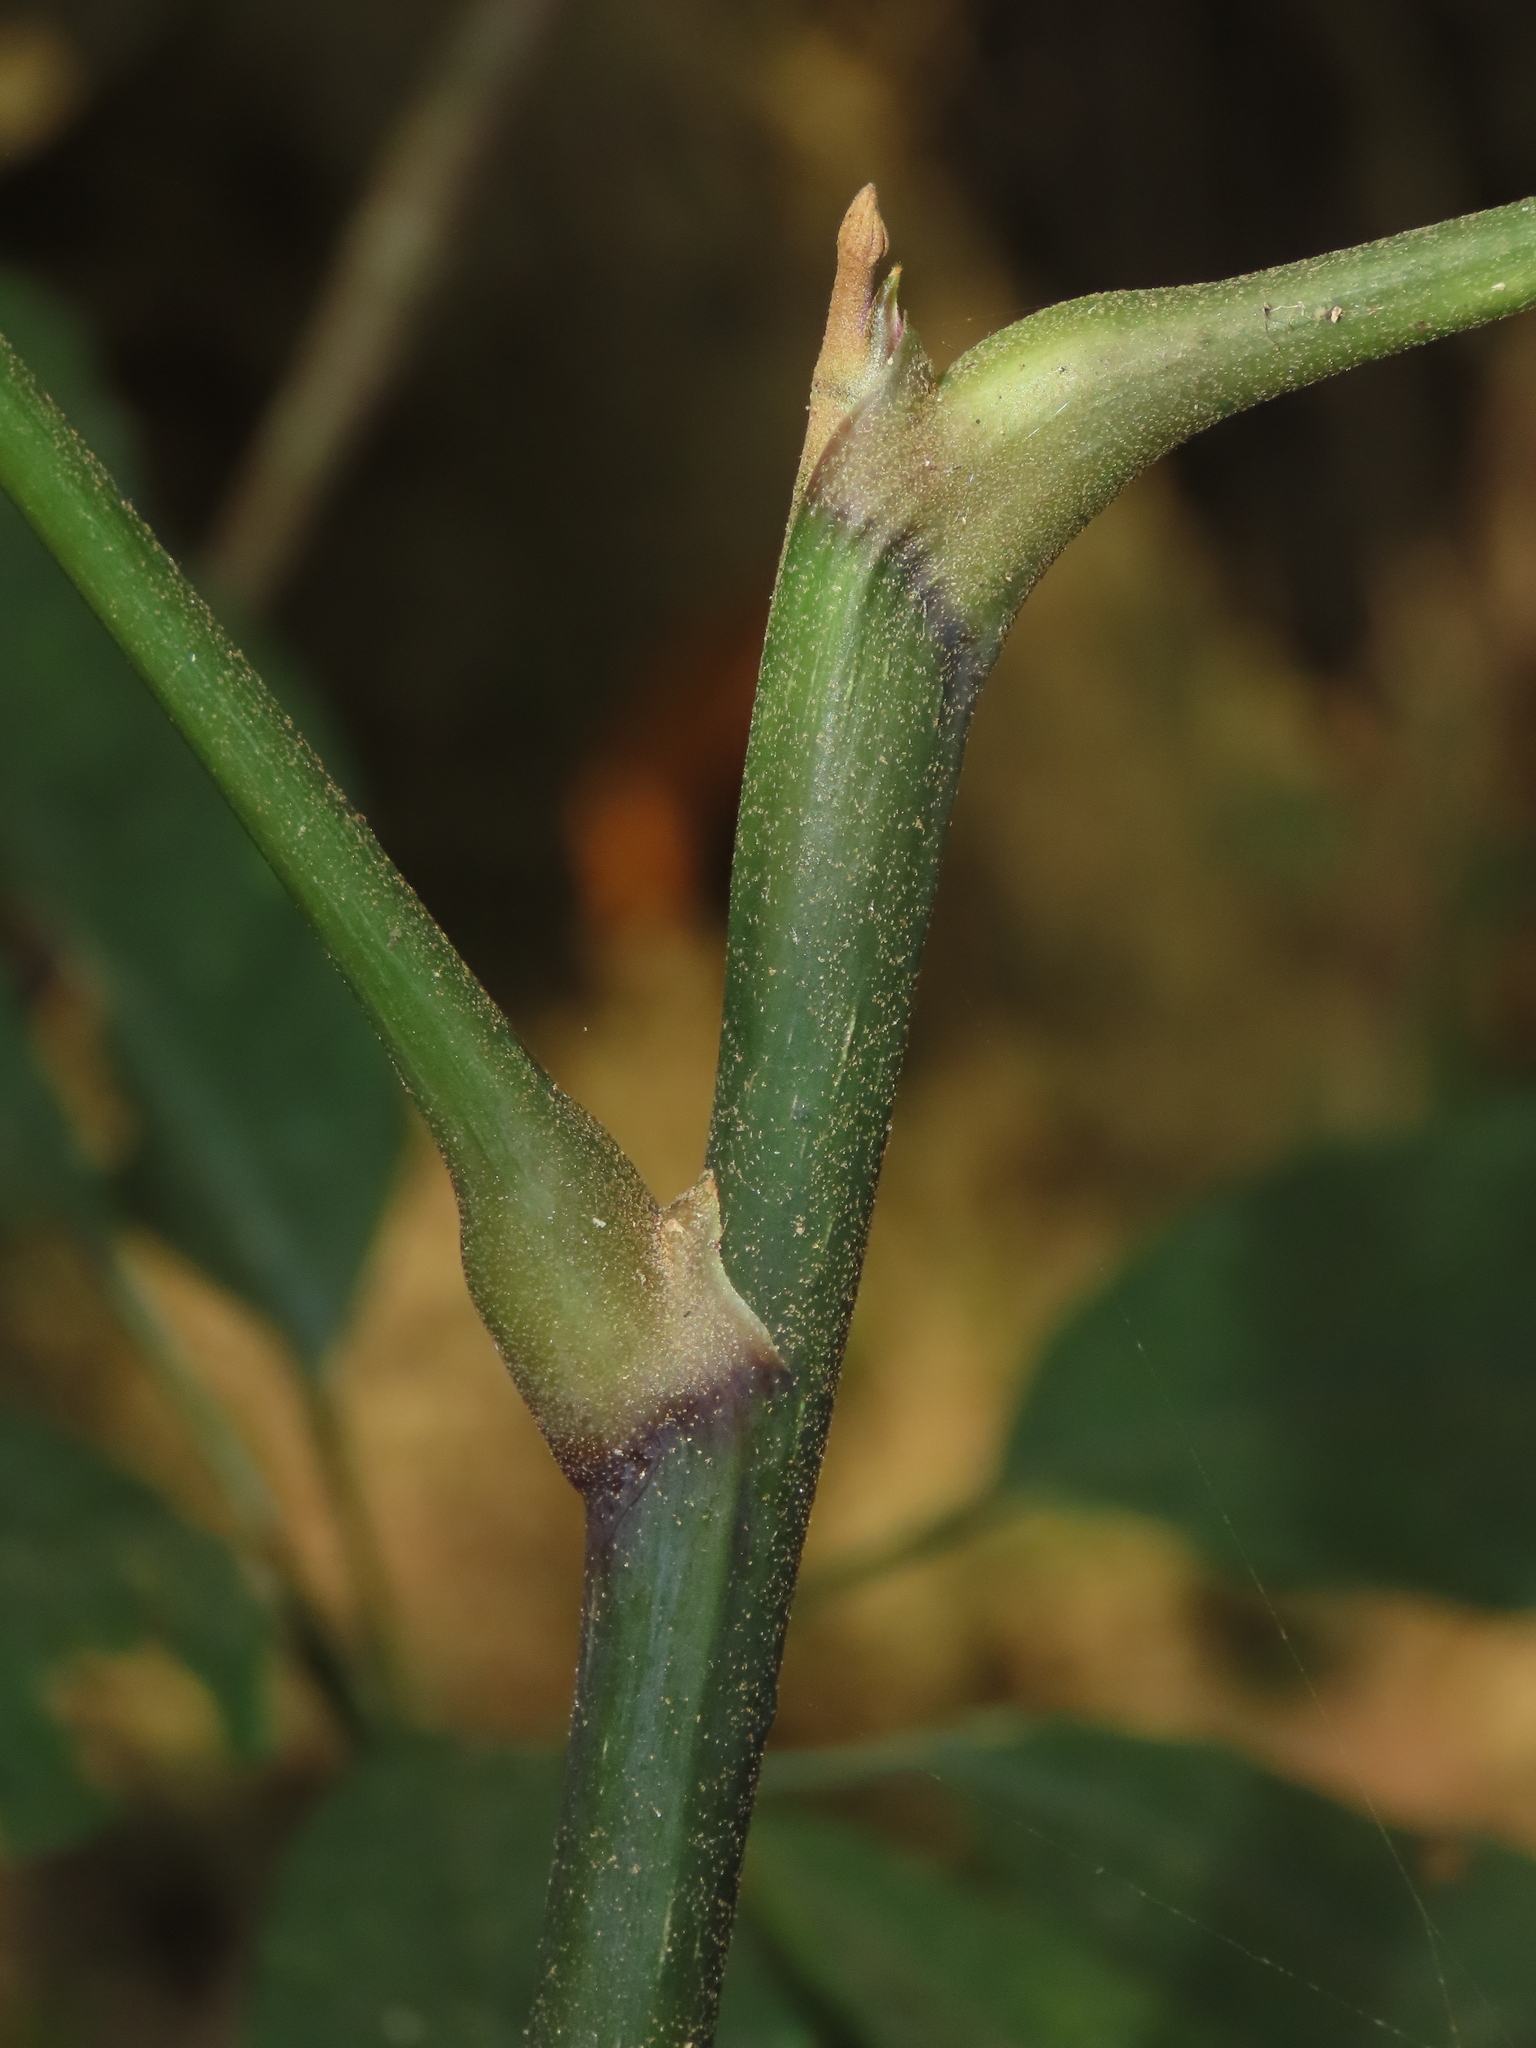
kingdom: Plantae
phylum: Tracheophyta
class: Magnoliopsida
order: Apiales
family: Araliaceae
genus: Heptapleurum
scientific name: Heptapleurum heptaphyllum
